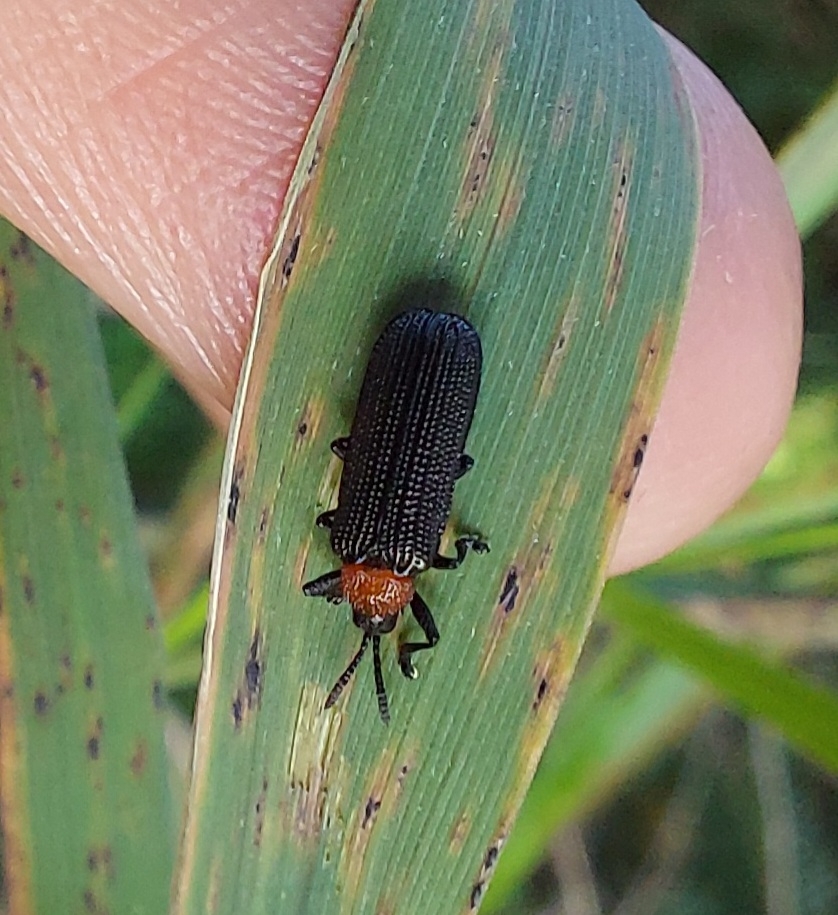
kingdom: Animalia
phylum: Arthropoda
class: Insecta
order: Coleoptera
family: Chrysomelidae
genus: Chalepus
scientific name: Chalepus walshii
